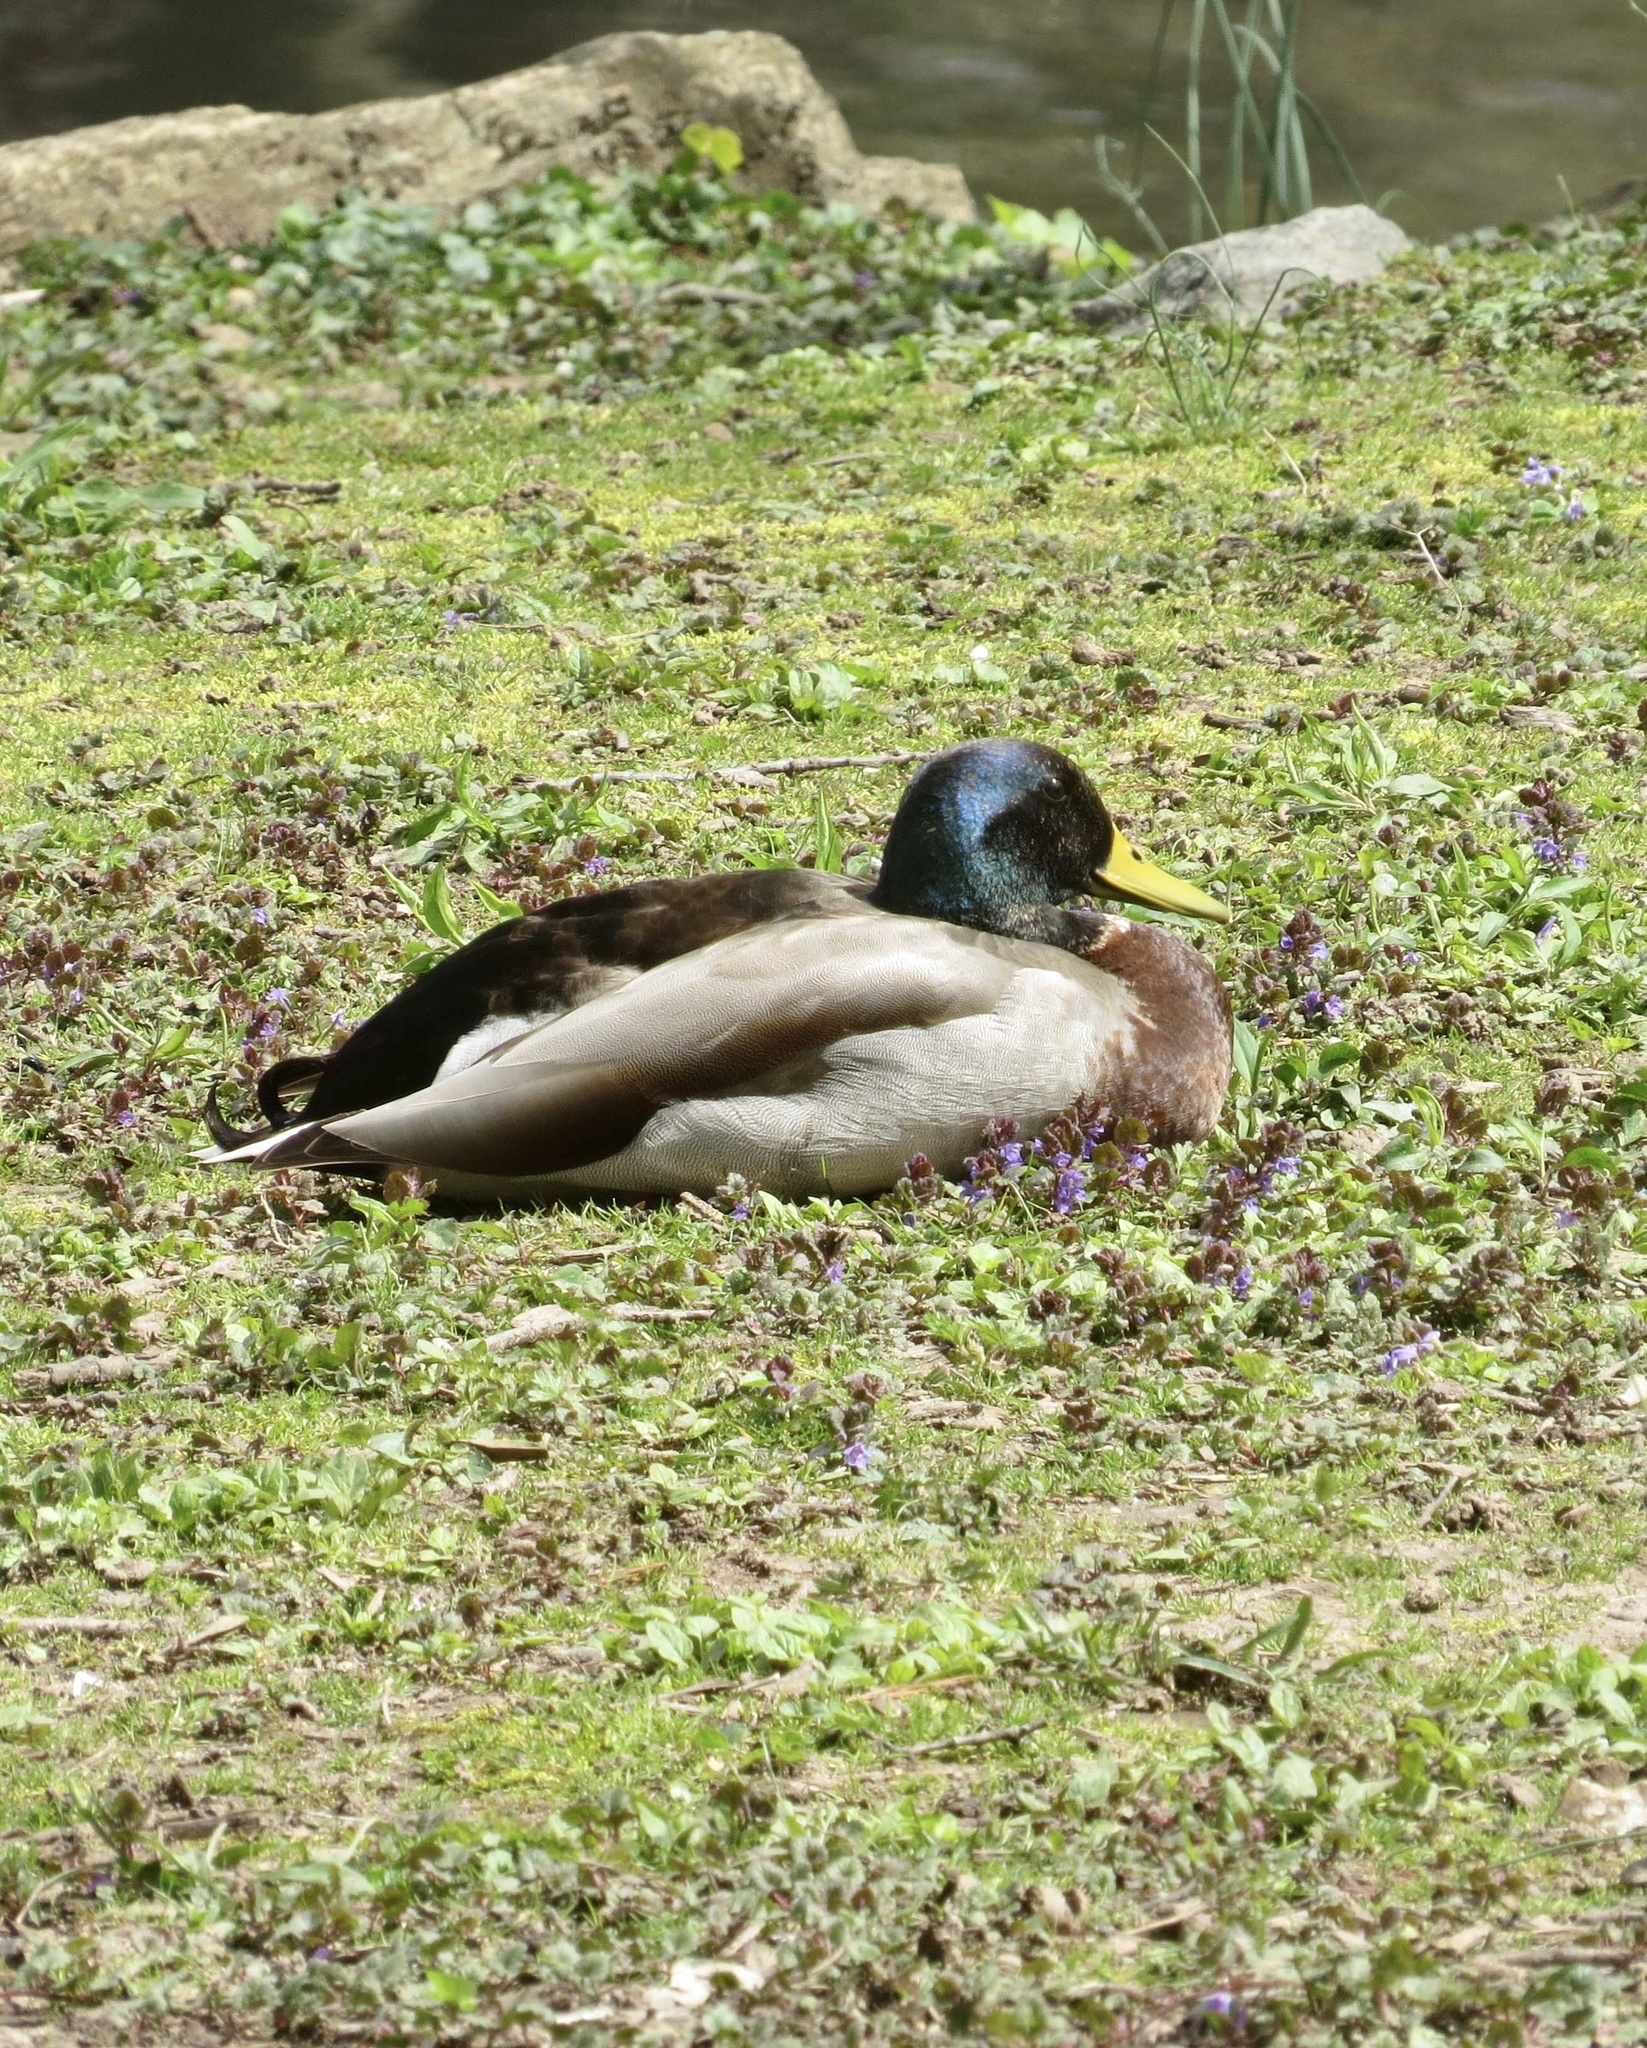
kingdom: Animalia
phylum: Chordata
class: Aves
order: Anseriformes
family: Anatidae
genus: Anas
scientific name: Anas platyrhynchos
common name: Mallard
